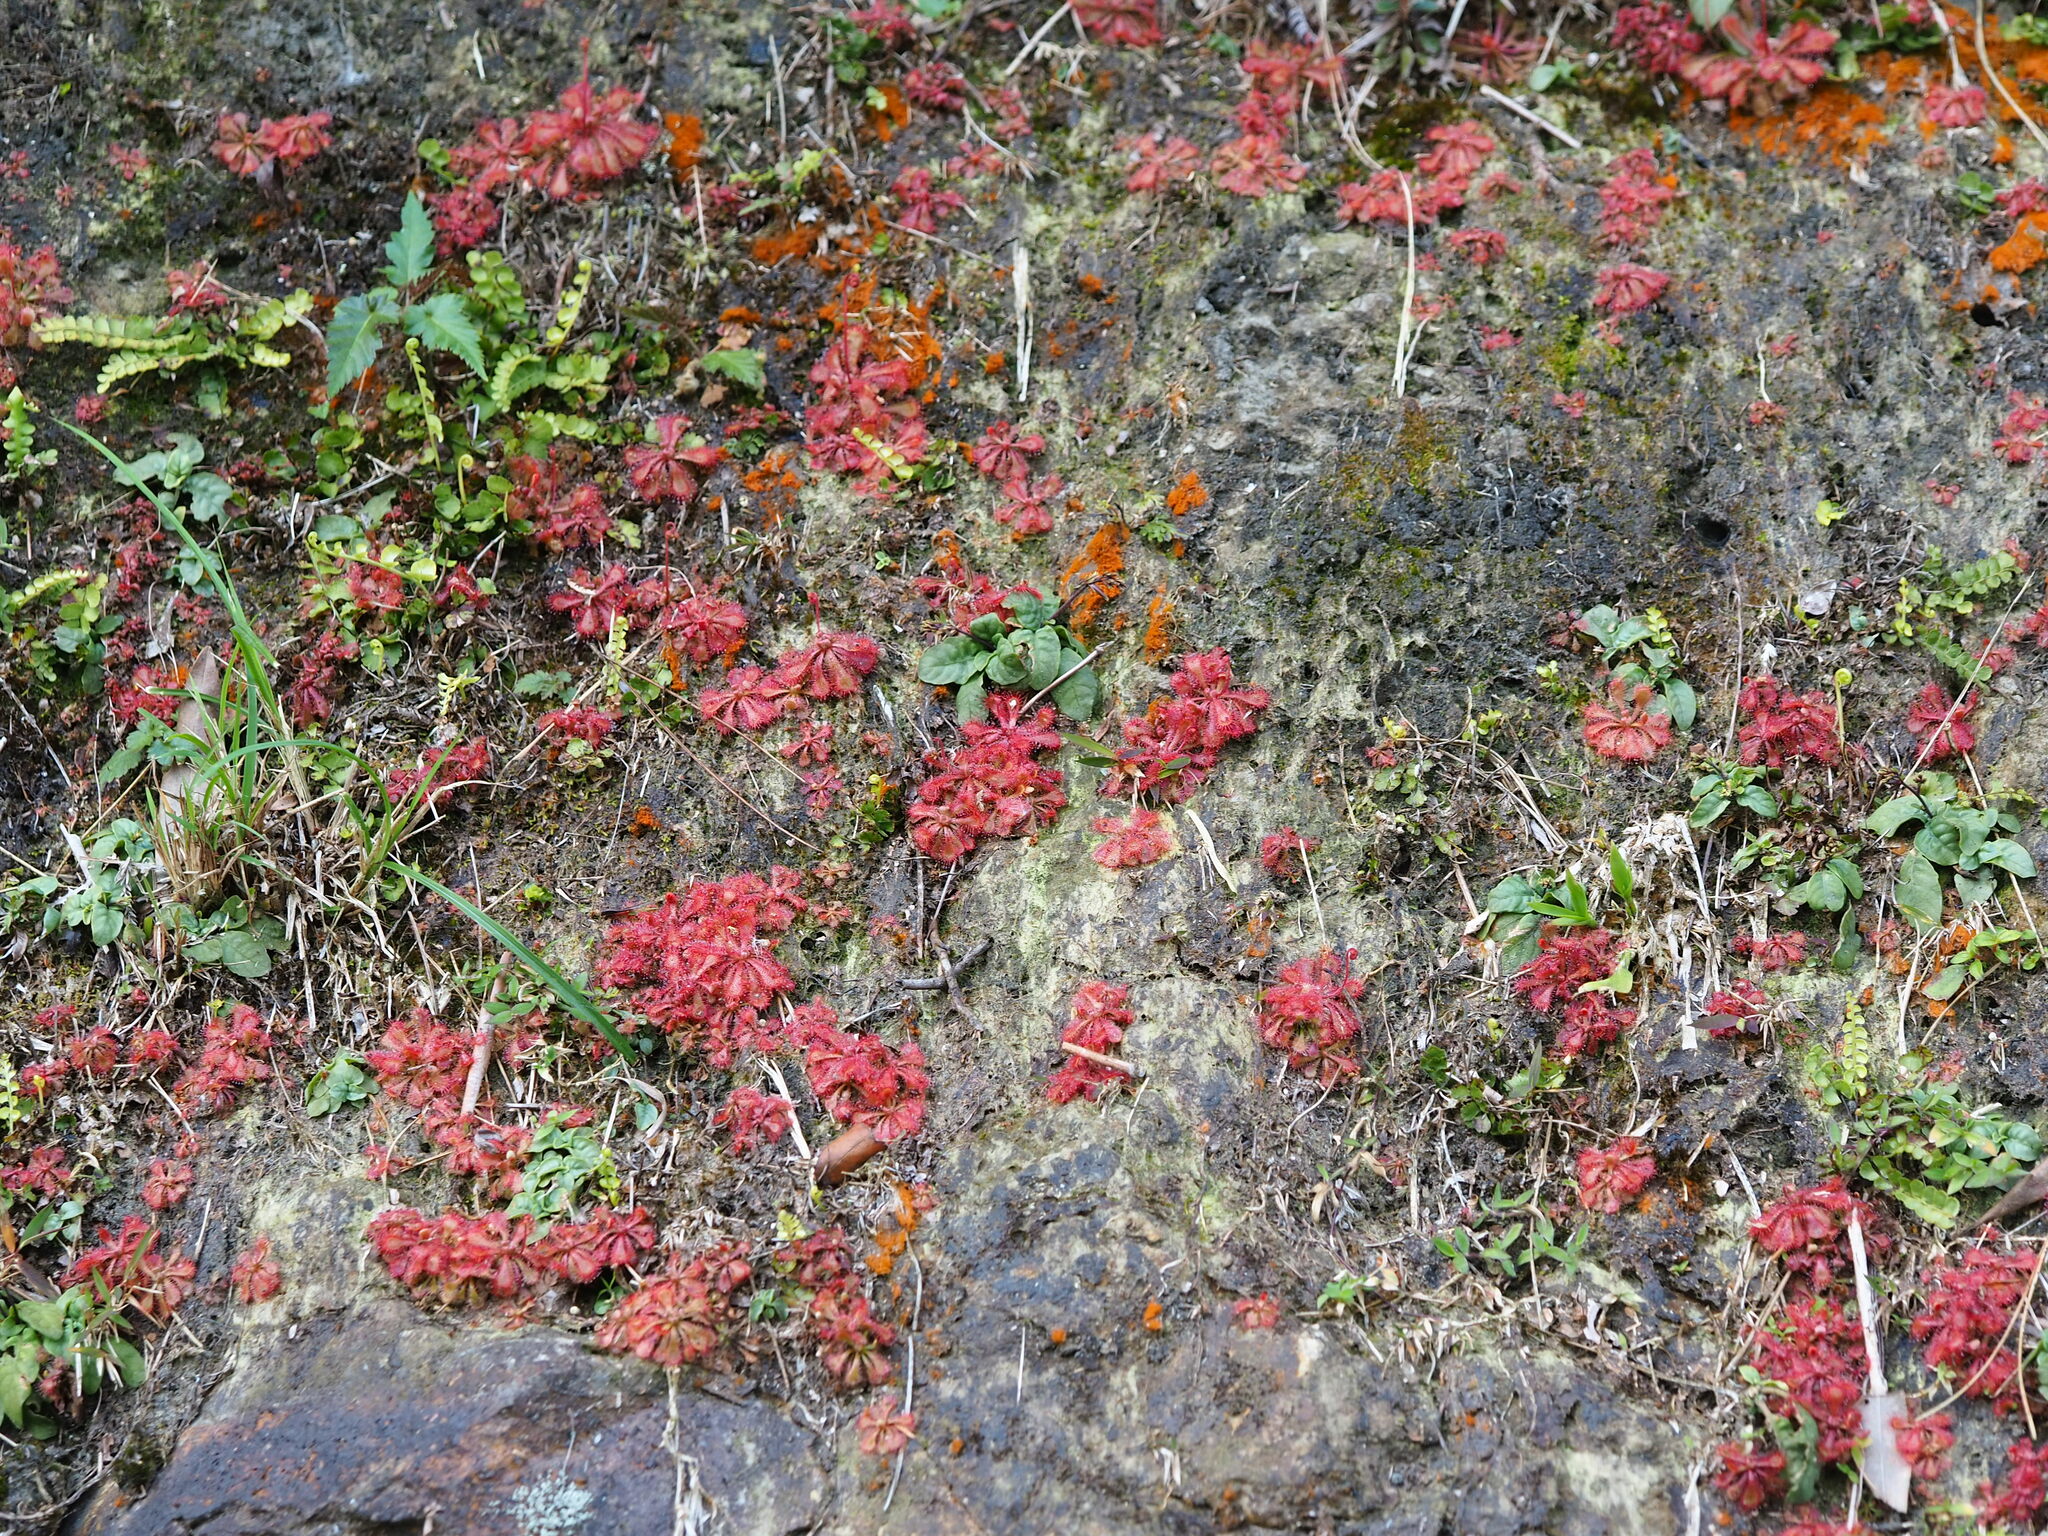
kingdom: Plantae
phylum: Tracheophyta
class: Magnoliopsida
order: Caryophyllales
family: Droseraceae
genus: Drosera
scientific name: Drosera spatulata
